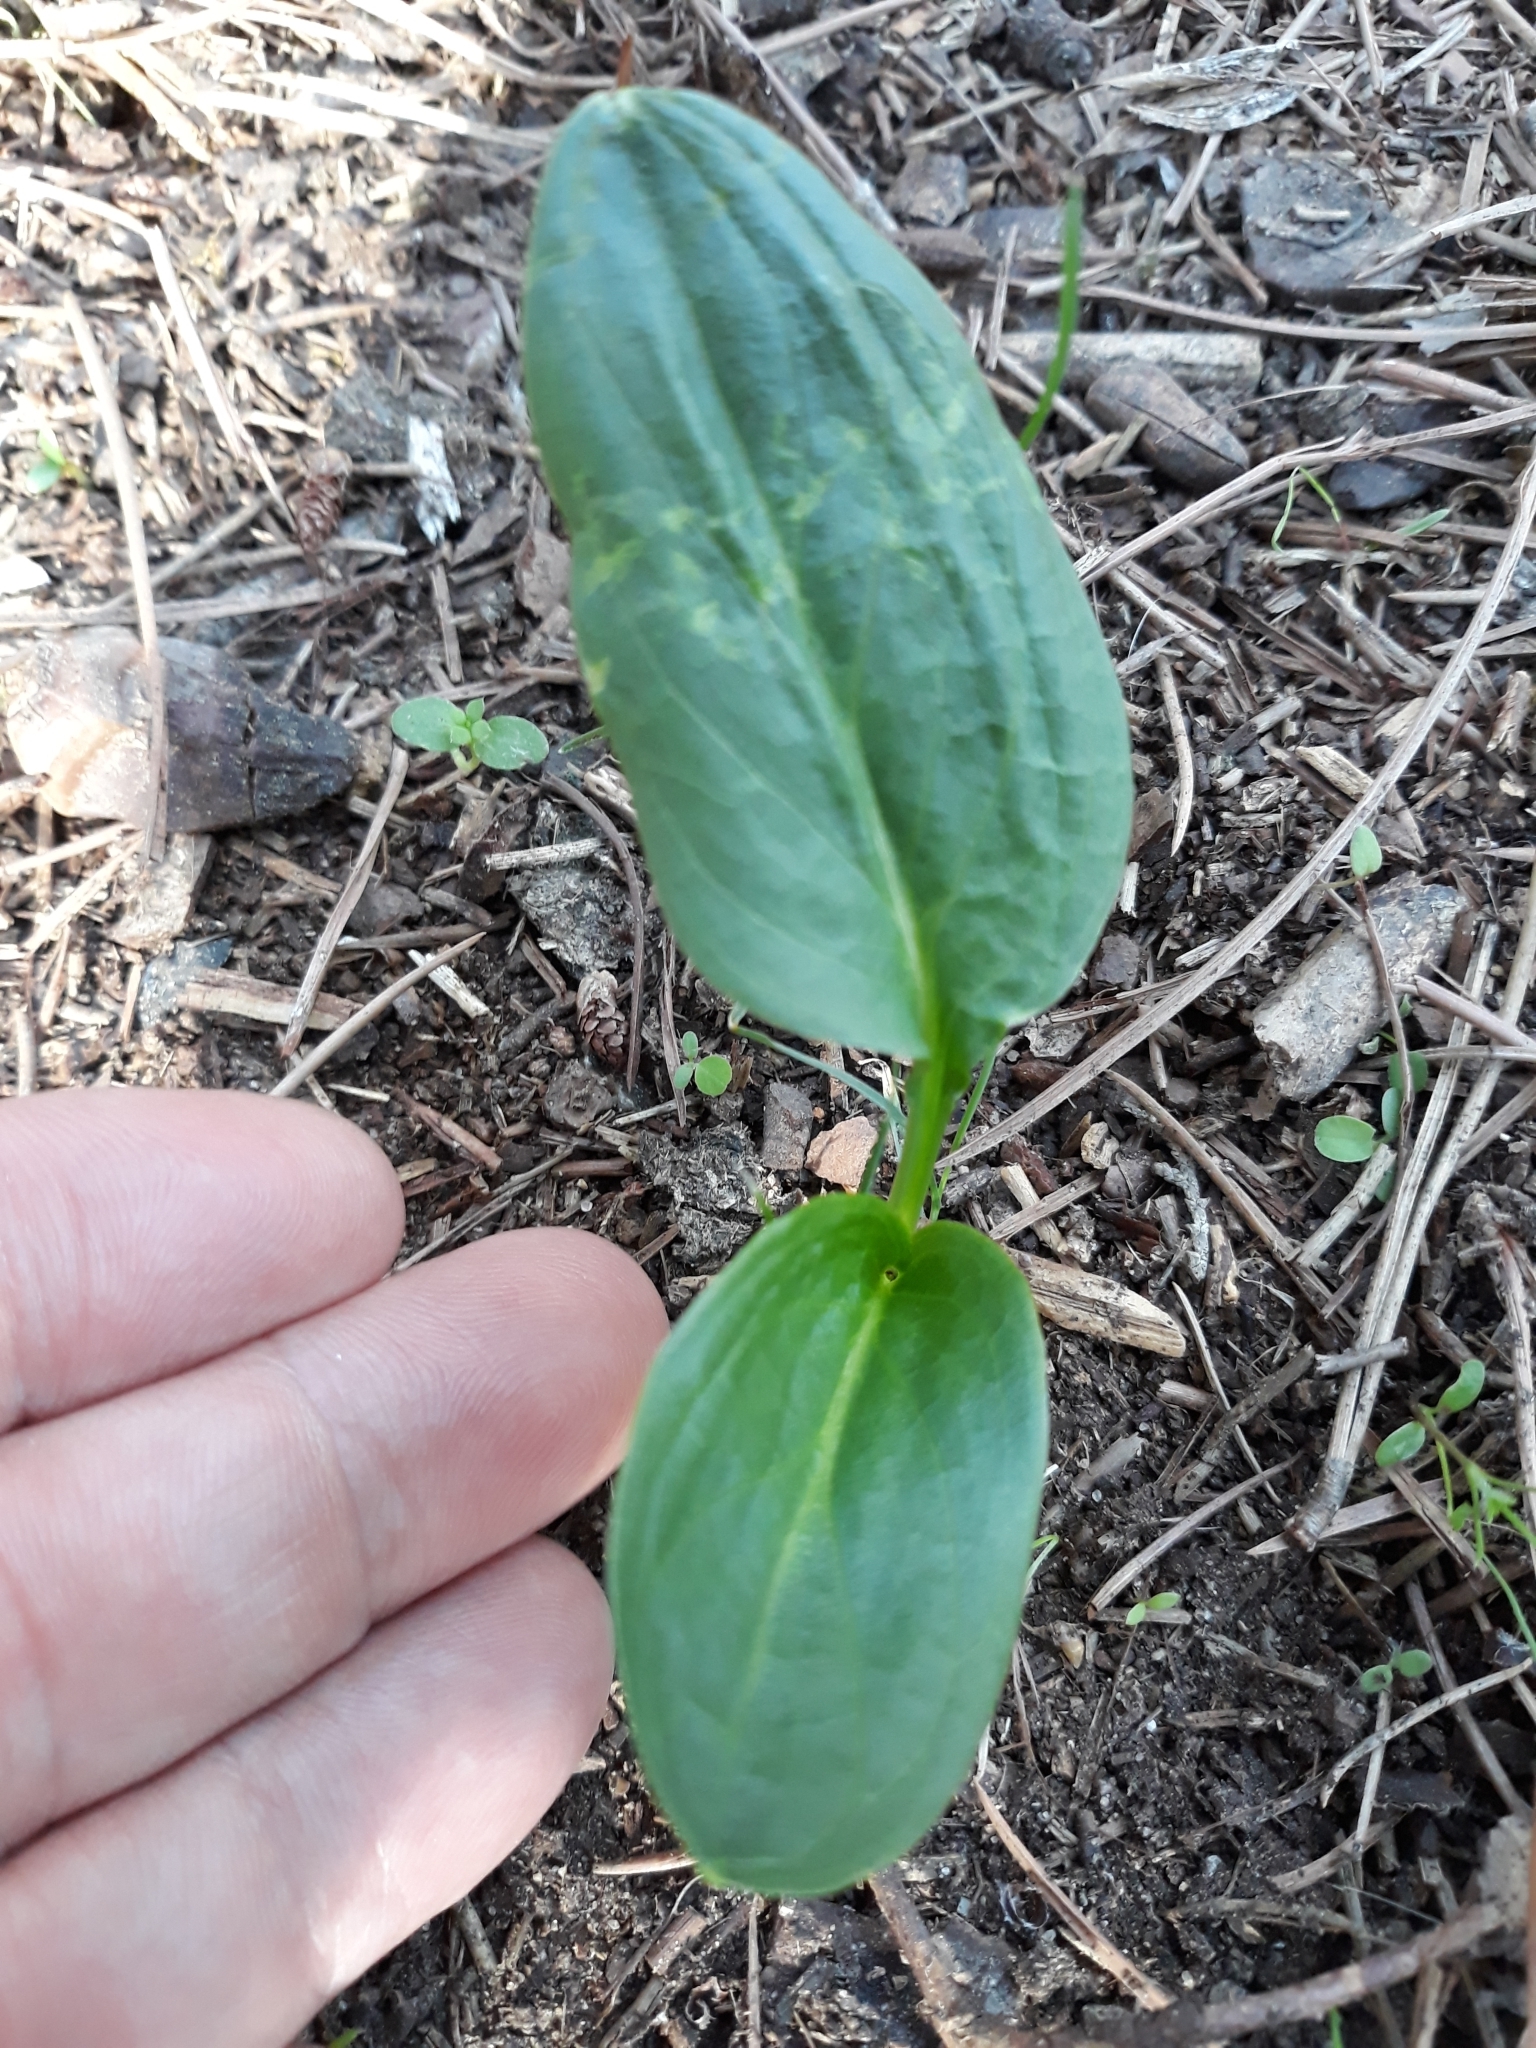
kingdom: Plantae
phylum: Tracheophyta
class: Liliopsida
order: Alismatales
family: Araceae
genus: Biarum
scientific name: Biarum dispar
